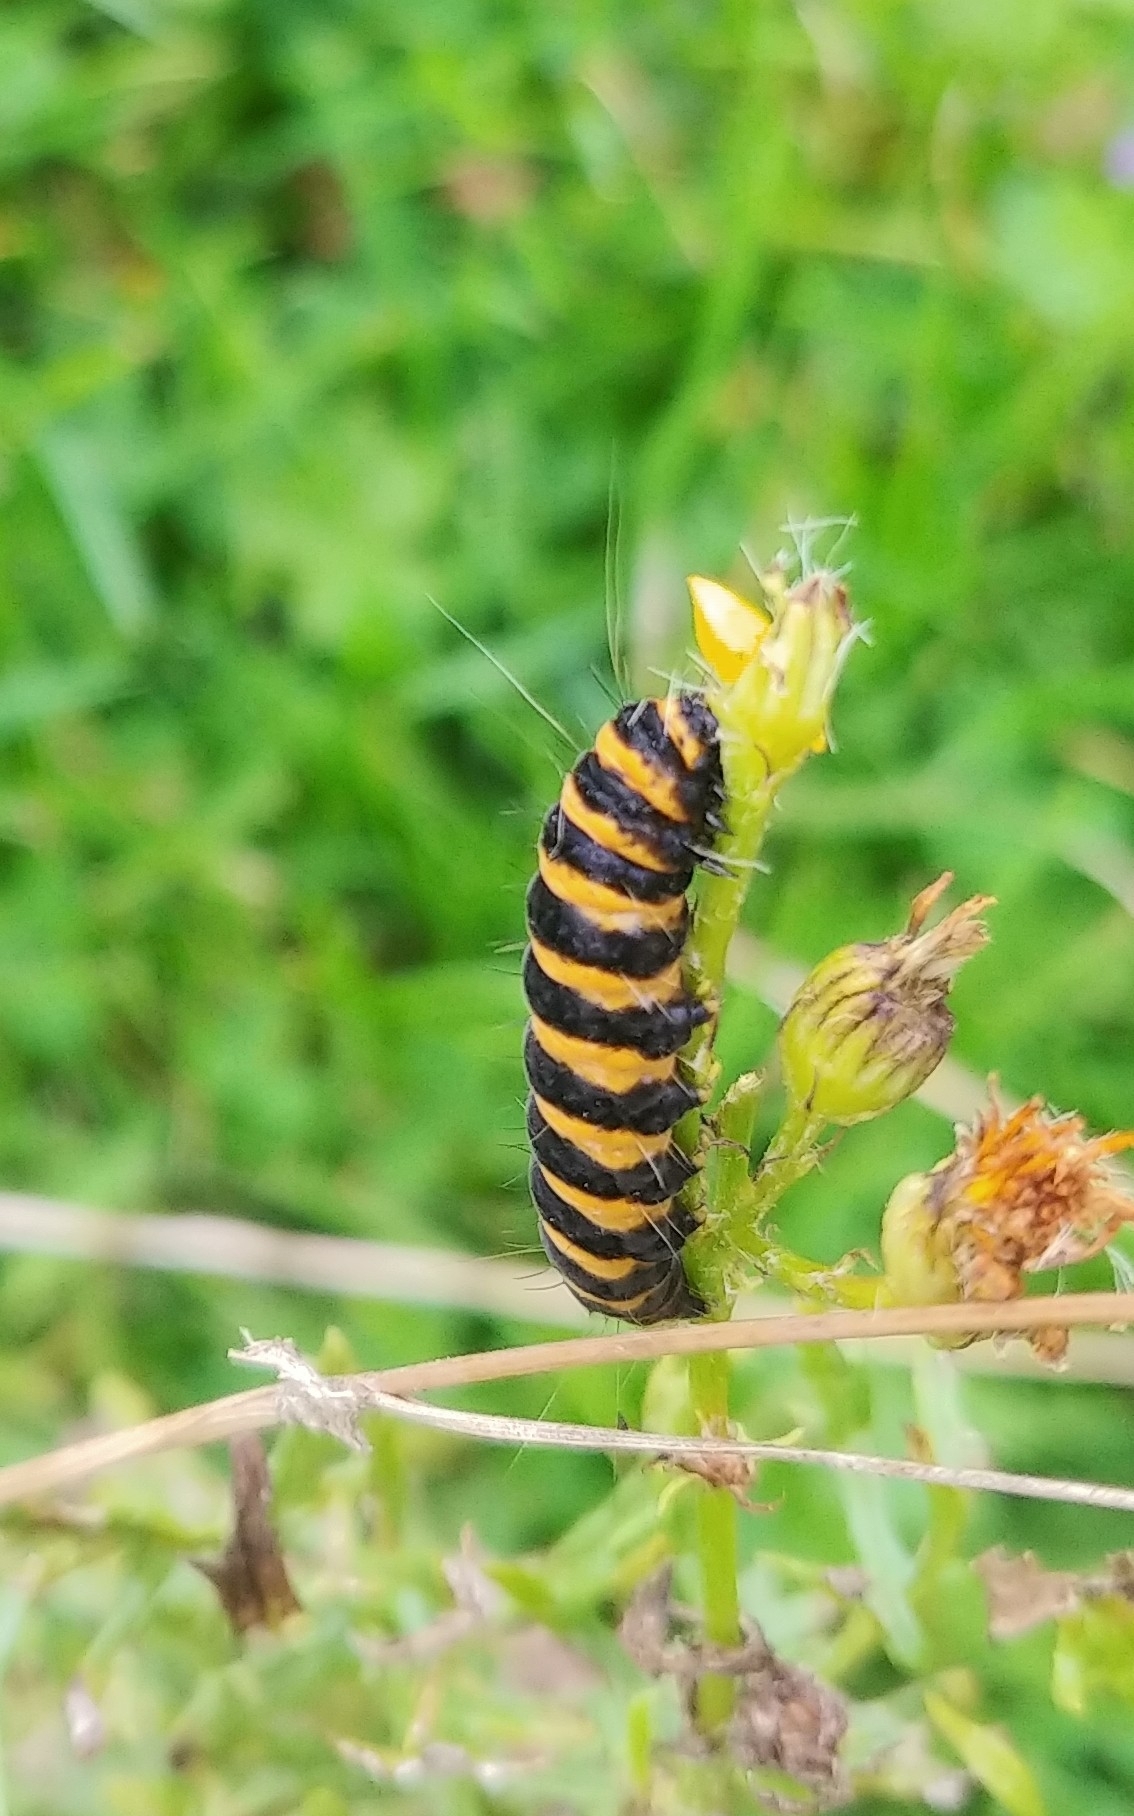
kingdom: Animalia
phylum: Arthropoda
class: Insecta
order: Lepidoptera
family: Erebidae
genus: Tyria
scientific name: Tyria jacobaeae
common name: Cinnabar
